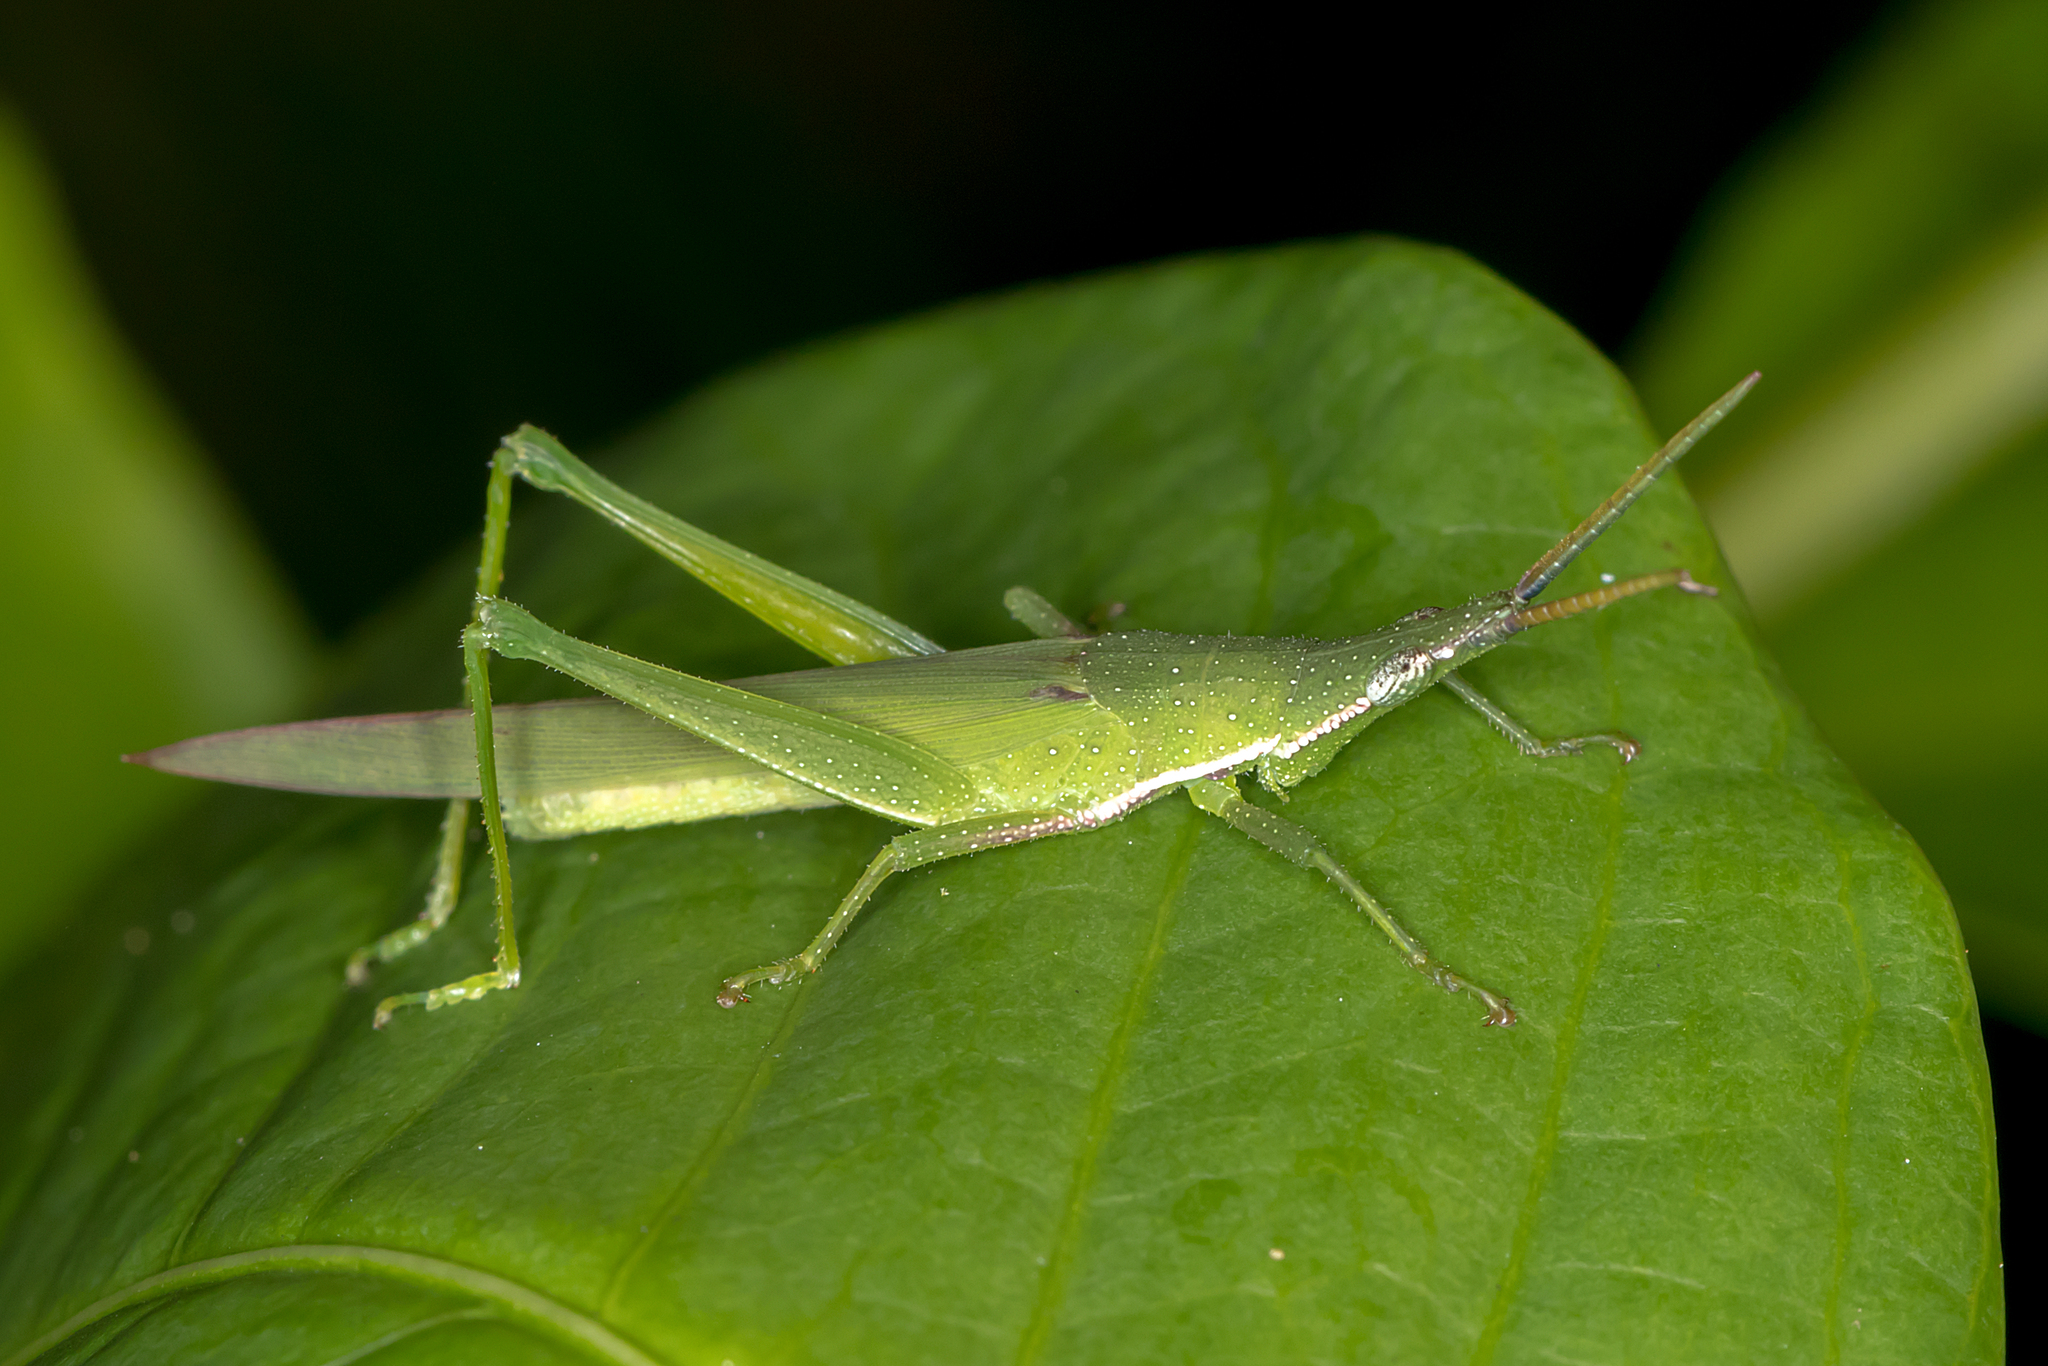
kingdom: Animalia
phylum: Arthropoda
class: Insecta
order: Orthoptera
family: Pyrgomorphidae
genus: Atractomorpha
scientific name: Atractomorpha similis
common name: Northern grass pyrgomorph
